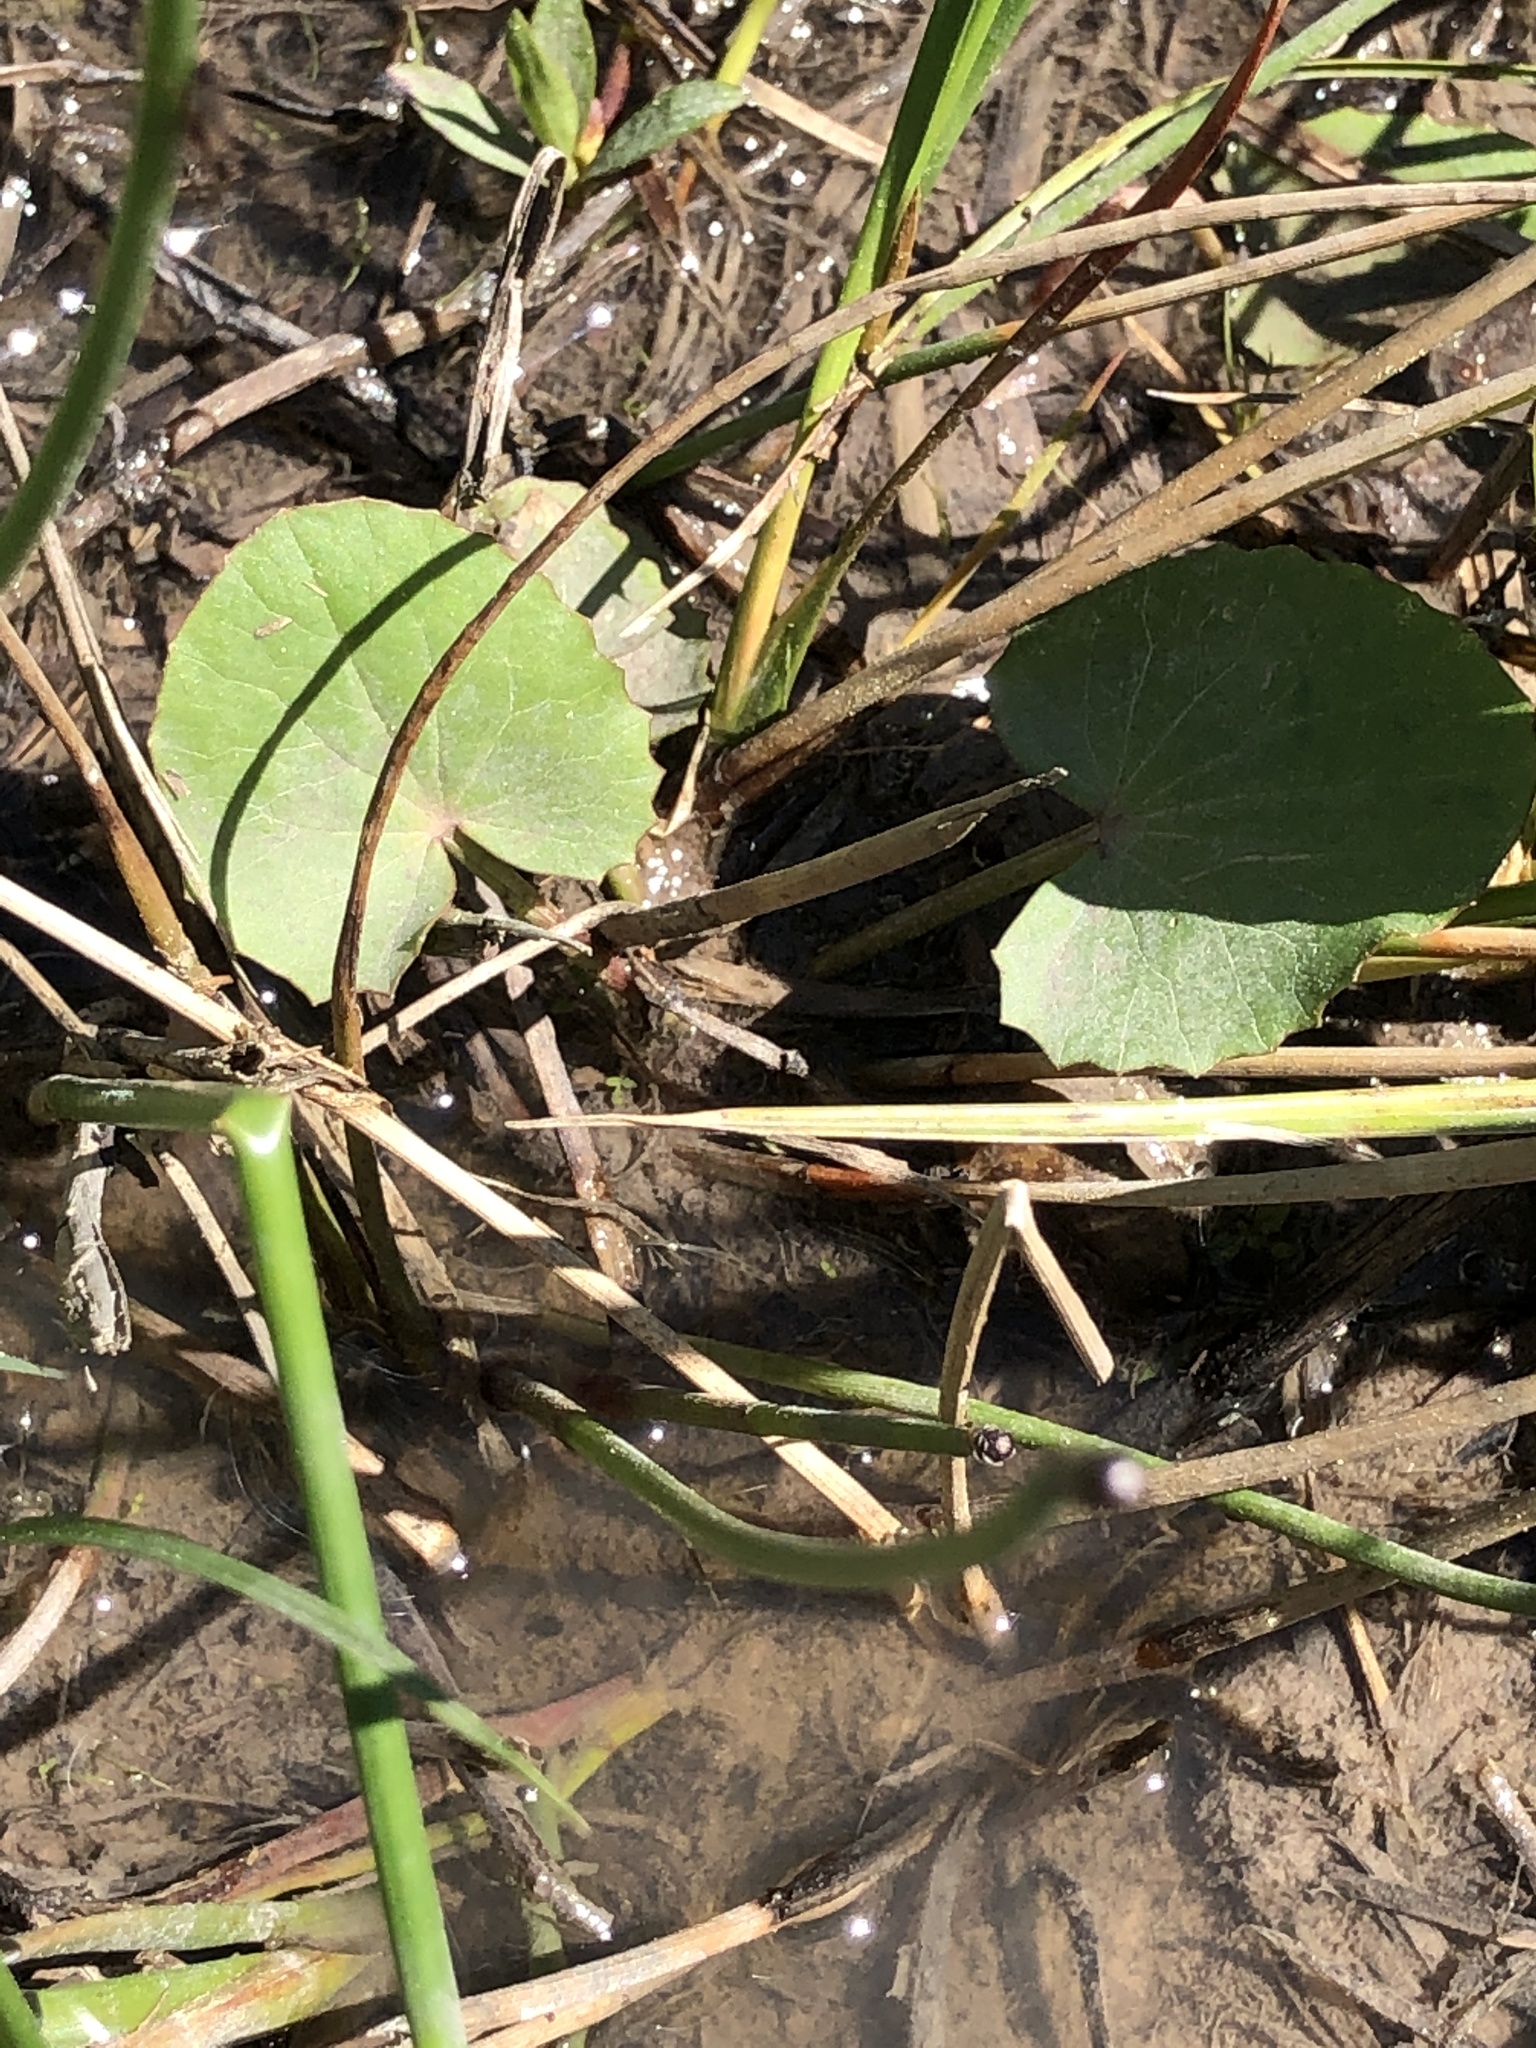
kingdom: Plantae
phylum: Tracheophyta
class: Magnoliopsida
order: Apiales
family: Apiaceae
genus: Centella
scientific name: Centella erecta
